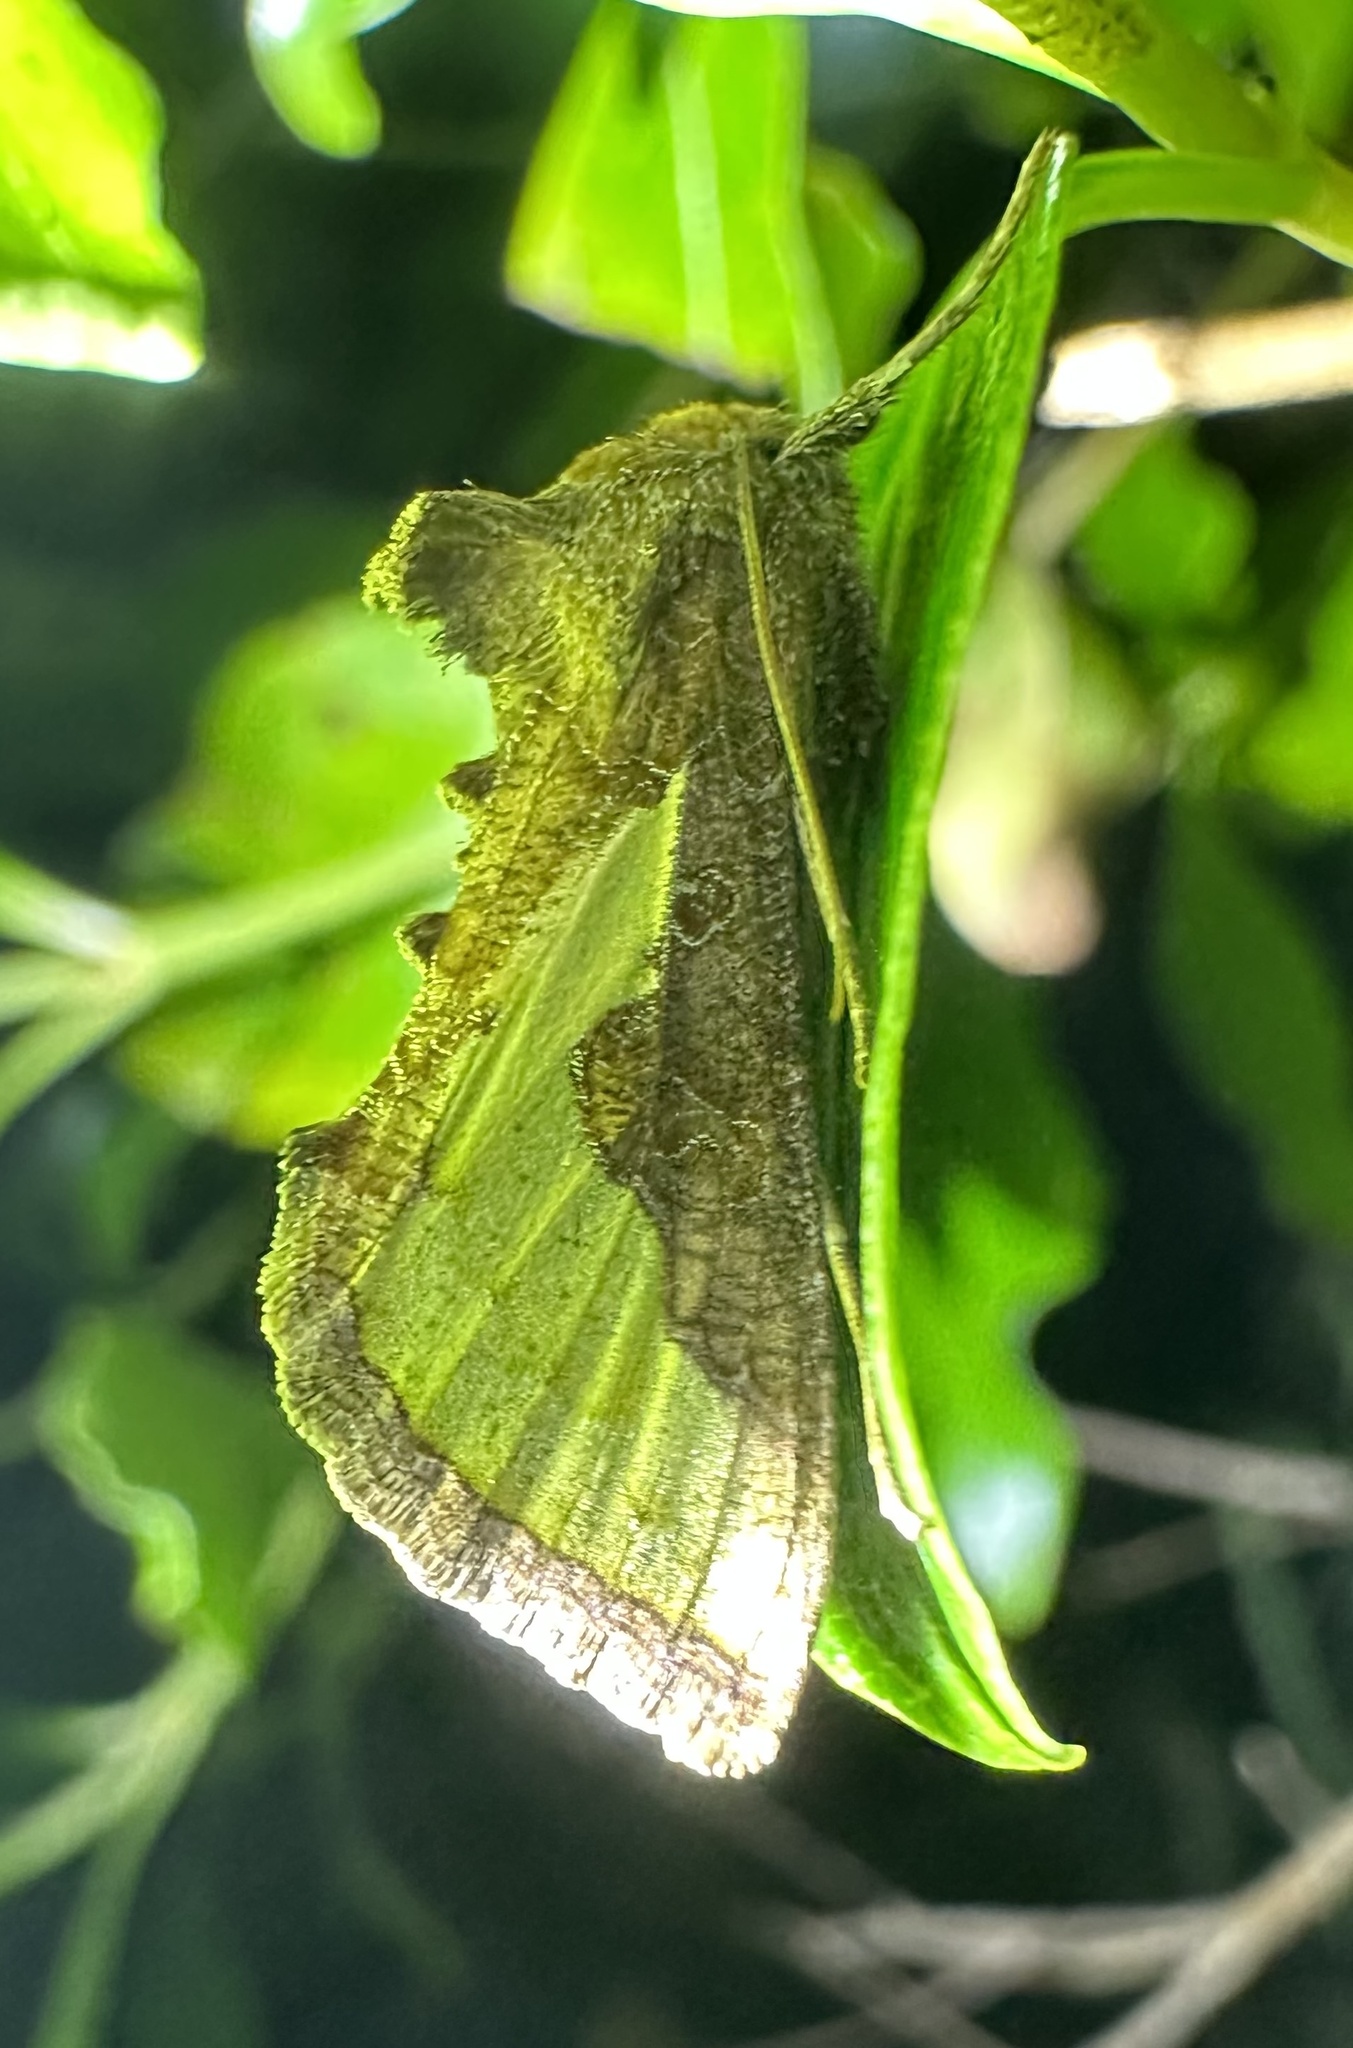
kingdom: Animalia
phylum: Arthropoda
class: Insecta
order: Lepidoptera
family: Noctuidae
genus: Thysanoplusia
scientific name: Thysanoplusia orichalcea
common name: Slender burnished brass, golden plusia
